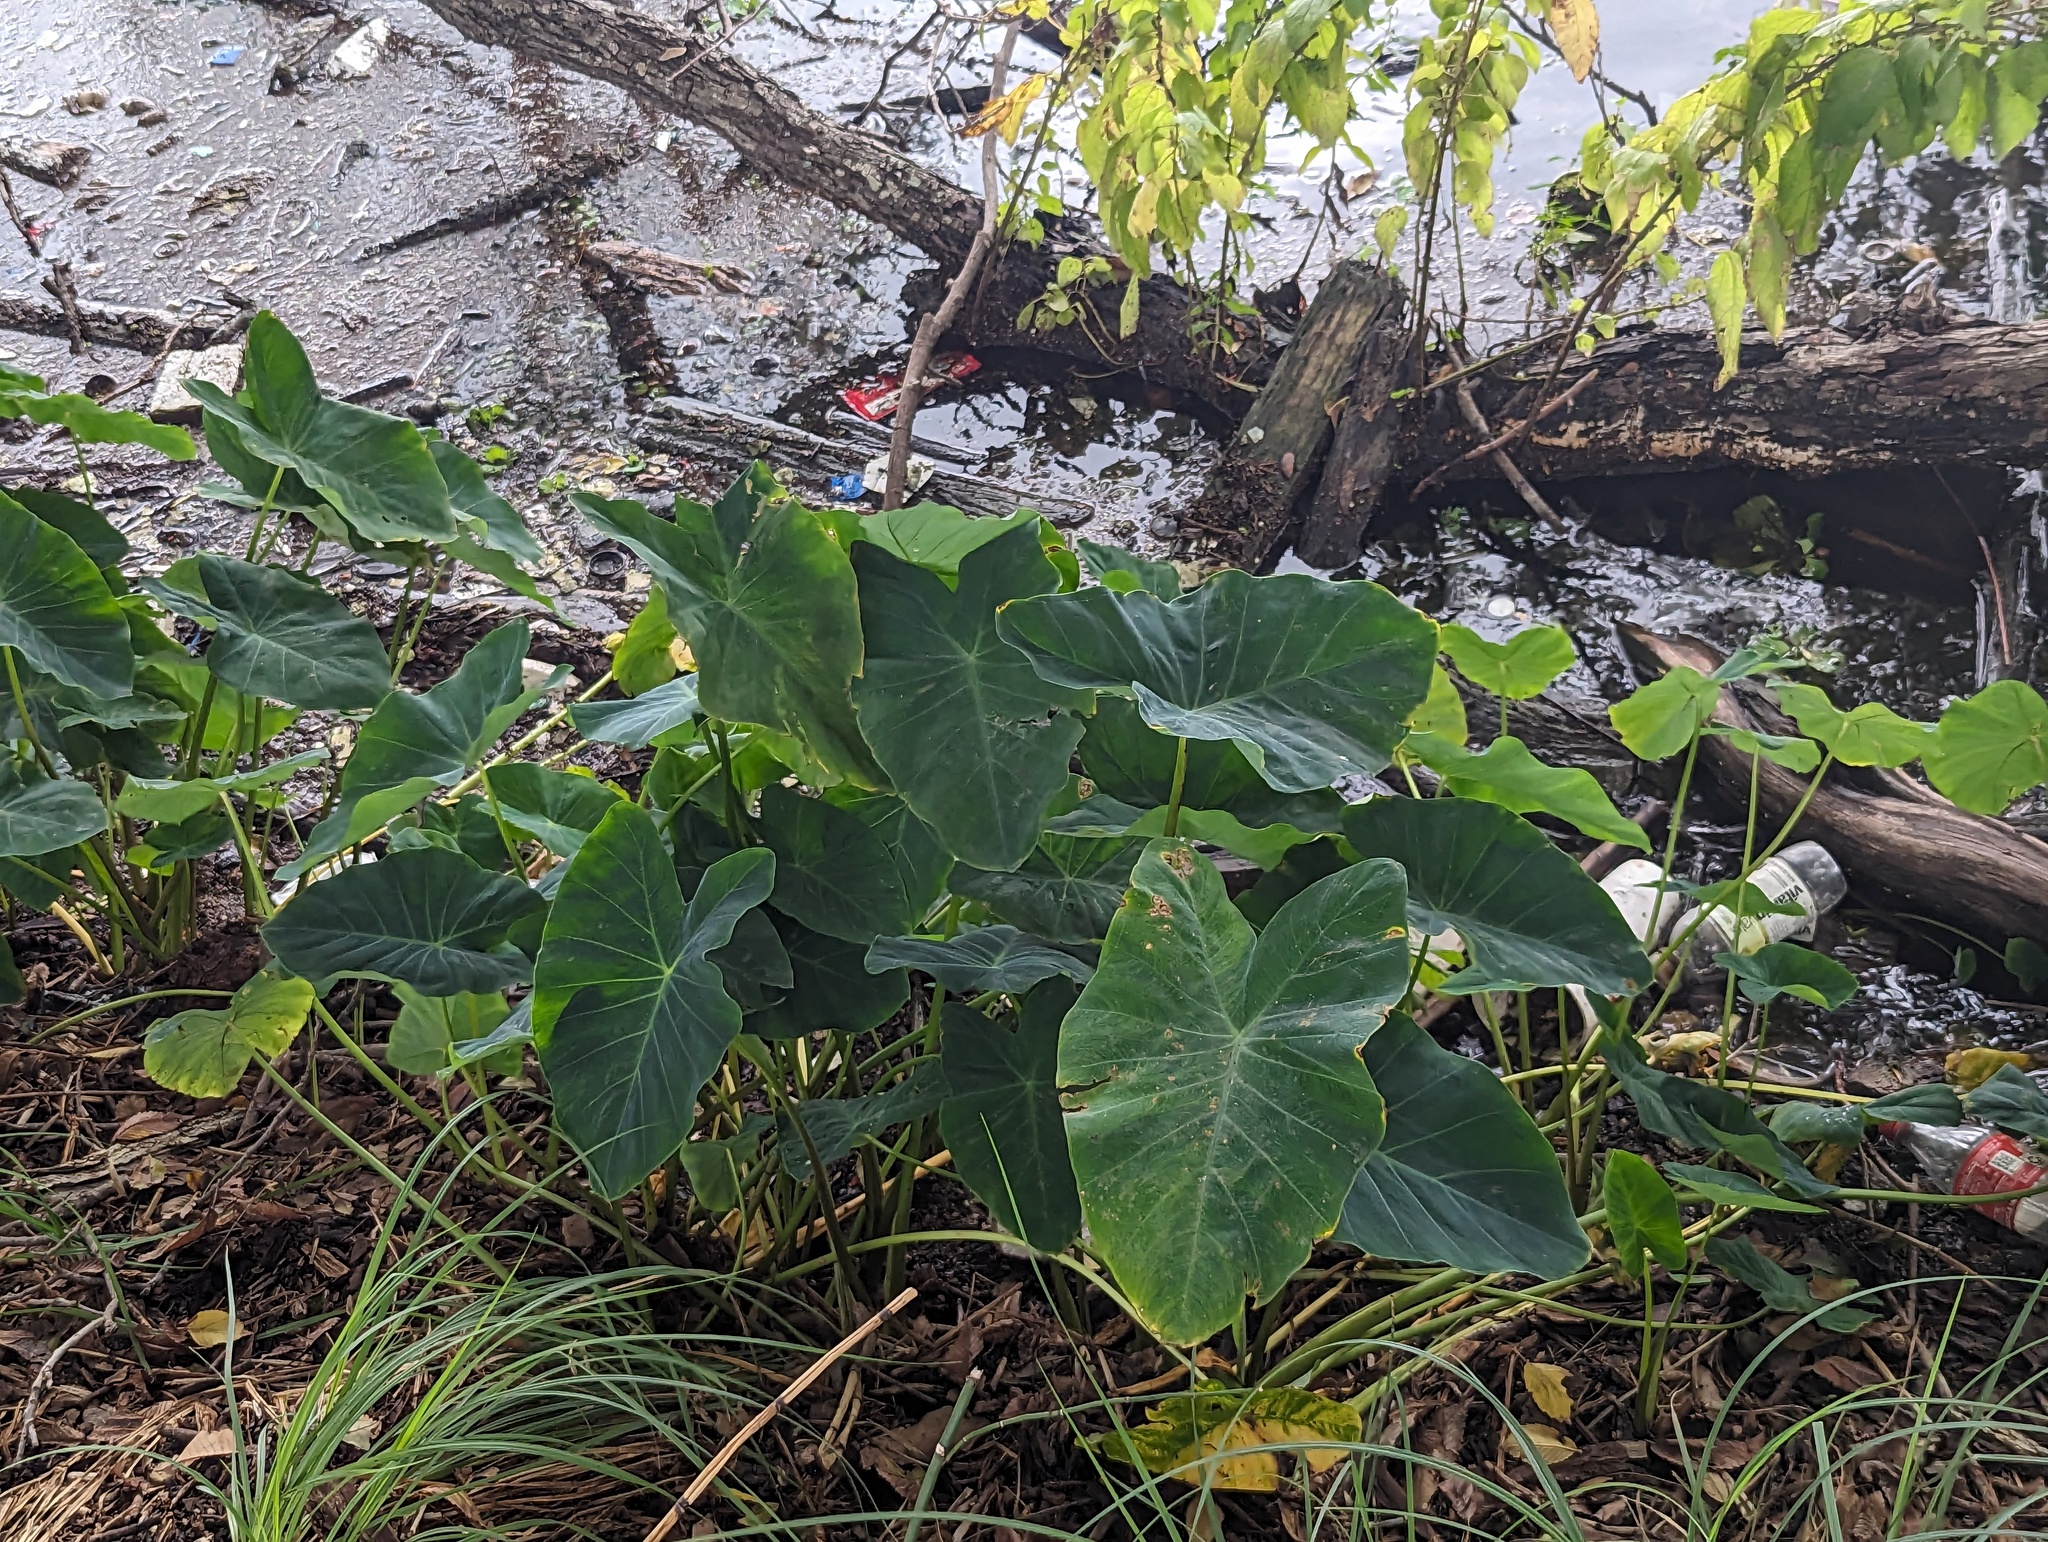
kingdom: Plantae
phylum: Tracheophyta
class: Liliopsida
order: Alismatales
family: Araceae
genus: Colocasia
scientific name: Colocasia esculenta
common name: Taro
